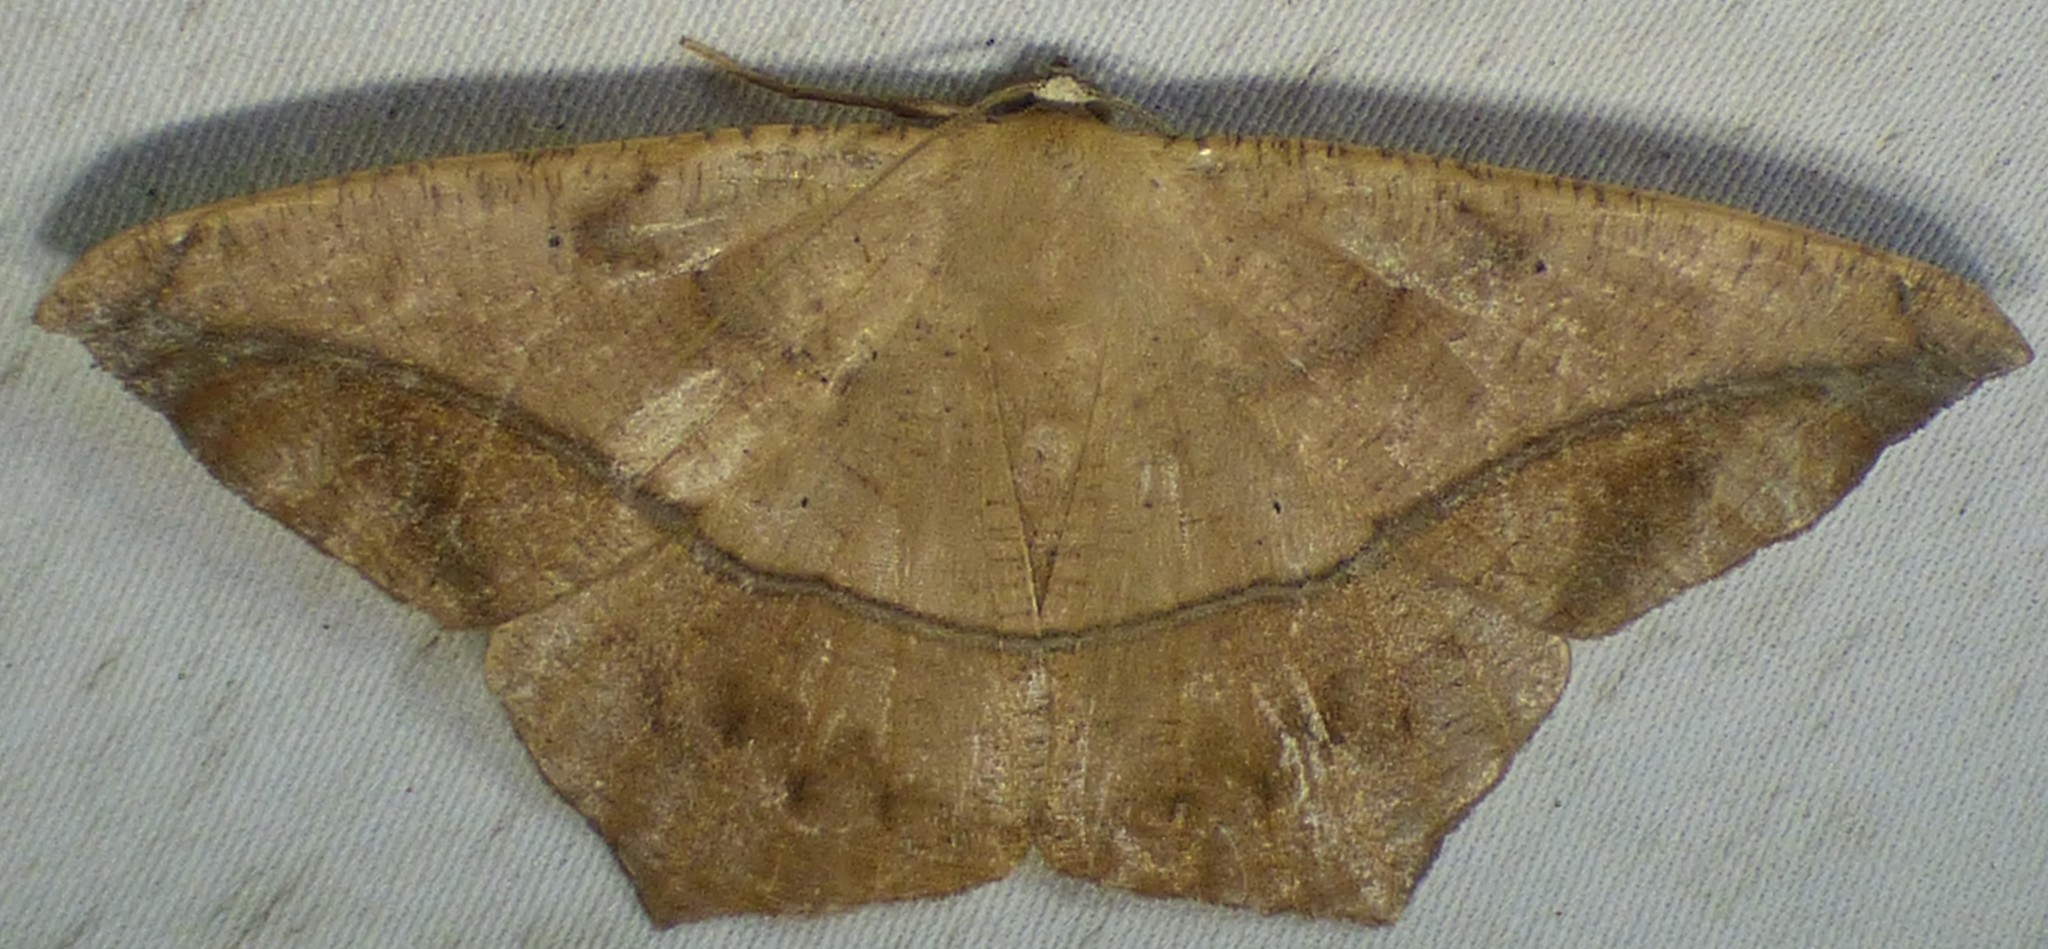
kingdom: Animalia
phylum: Arthropoda
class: Insecta
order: Lepidoptera
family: Geometridae
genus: Prochoerodes
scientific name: Prochoerodes lineola
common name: Large maple spanworm
